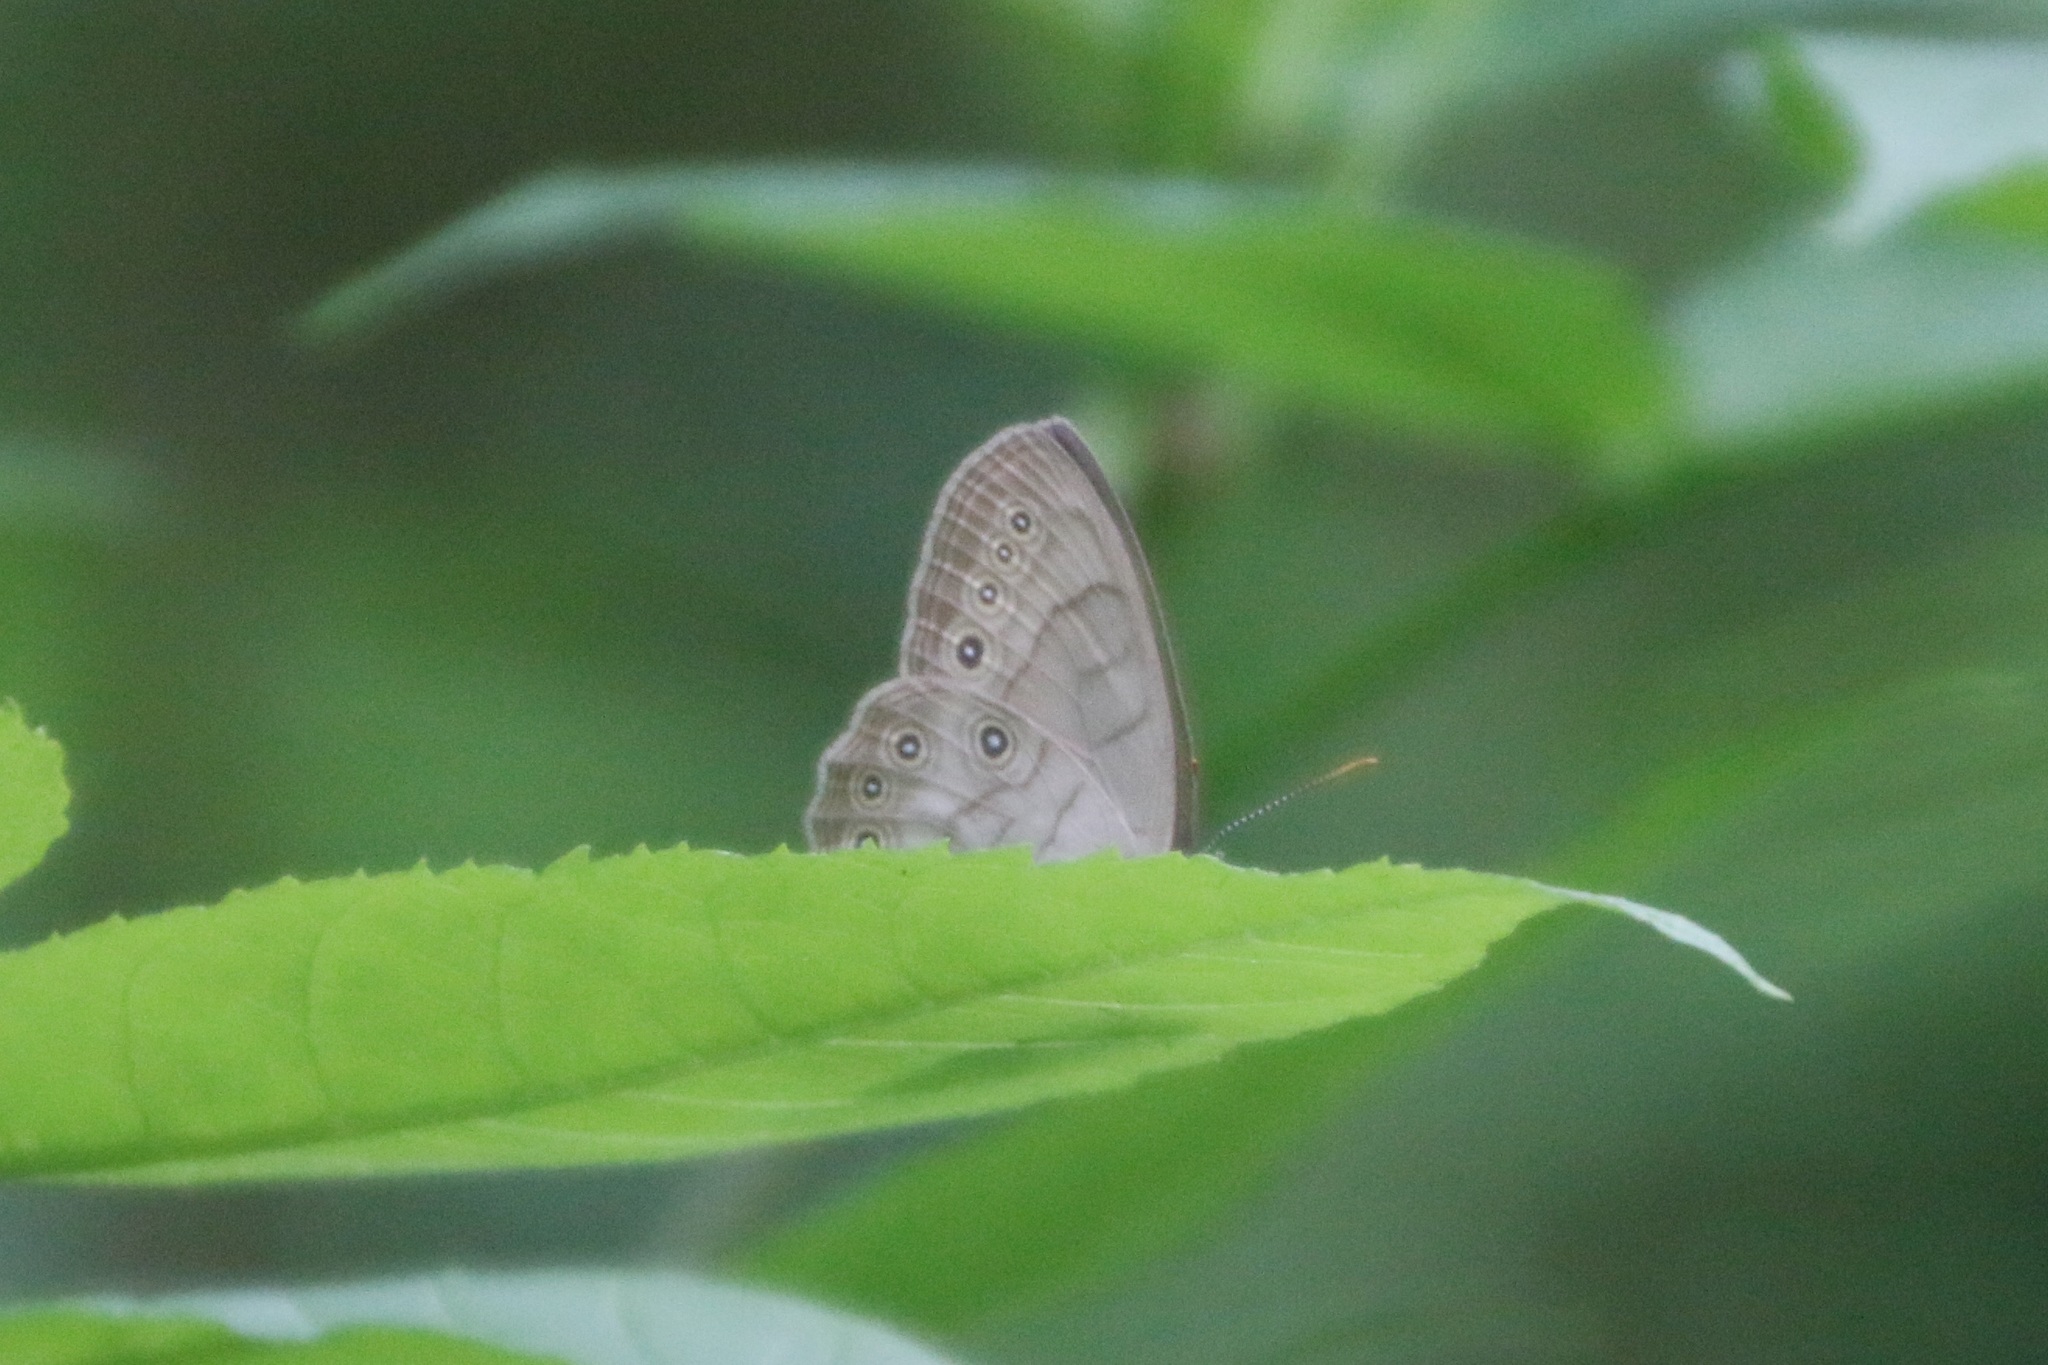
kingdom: Animalia
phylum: Arthropoda
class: Insecta
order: Lepidoptera
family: Nymphalidae
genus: Lethe
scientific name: Lethe eurydice
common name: Eyed brown
